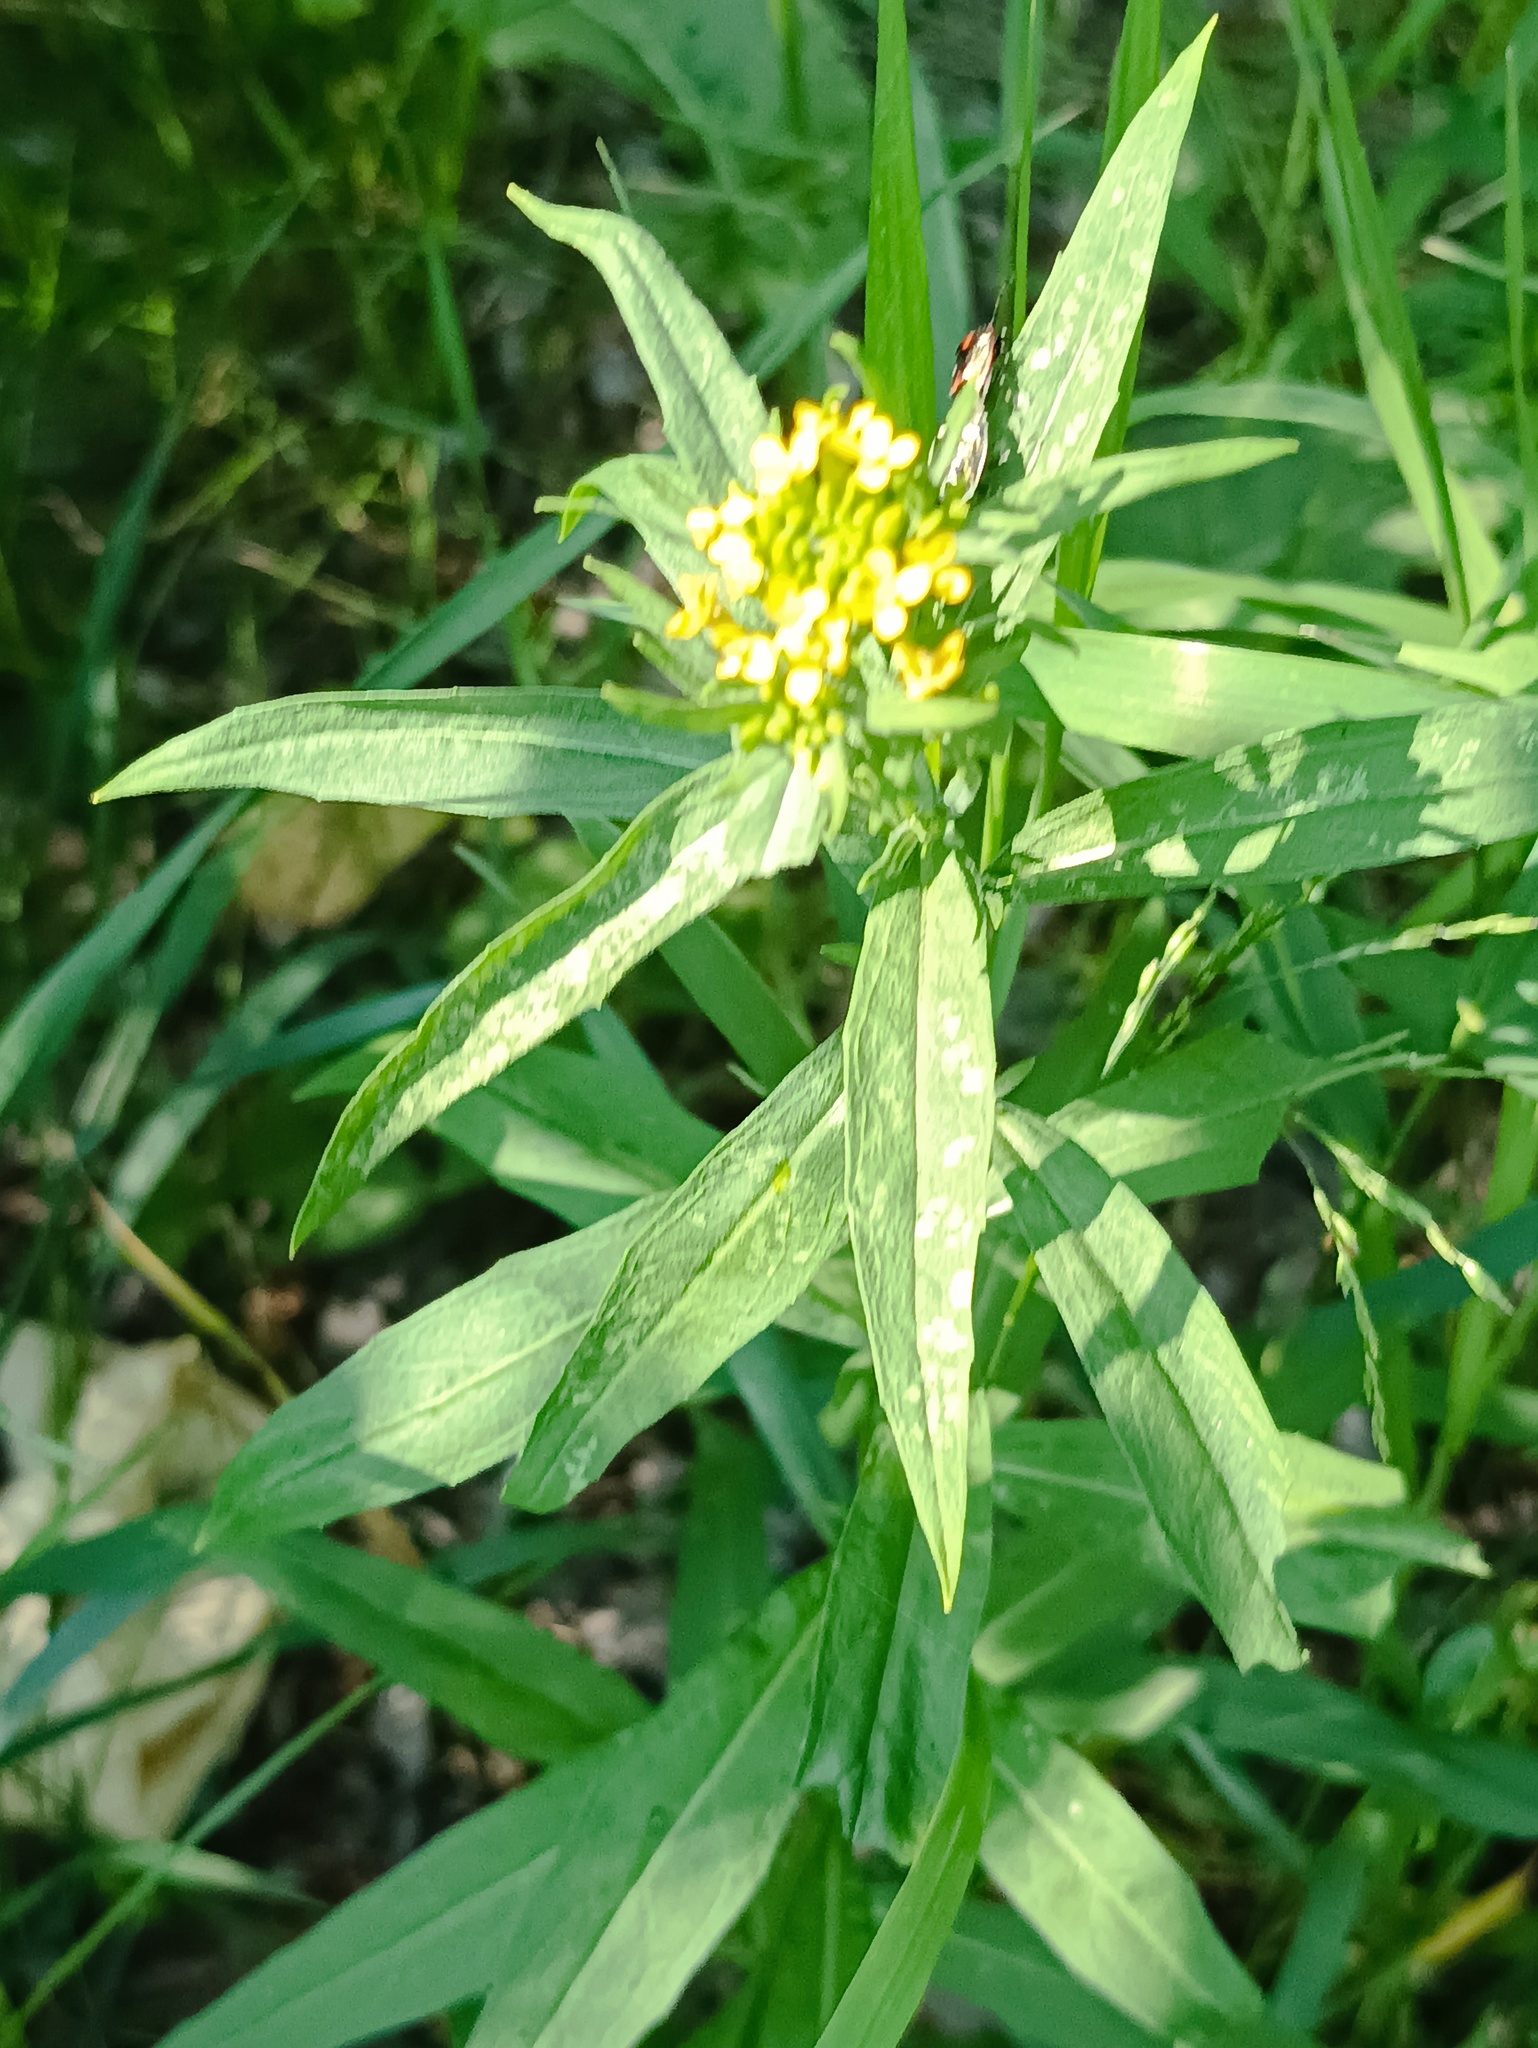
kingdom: Plantae
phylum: Tracheophyta
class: Magnoliopsida
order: Brassicales
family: Brassicaceae
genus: Erysimum
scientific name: Erysimum cheiranthoides
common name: Treacle mustard
